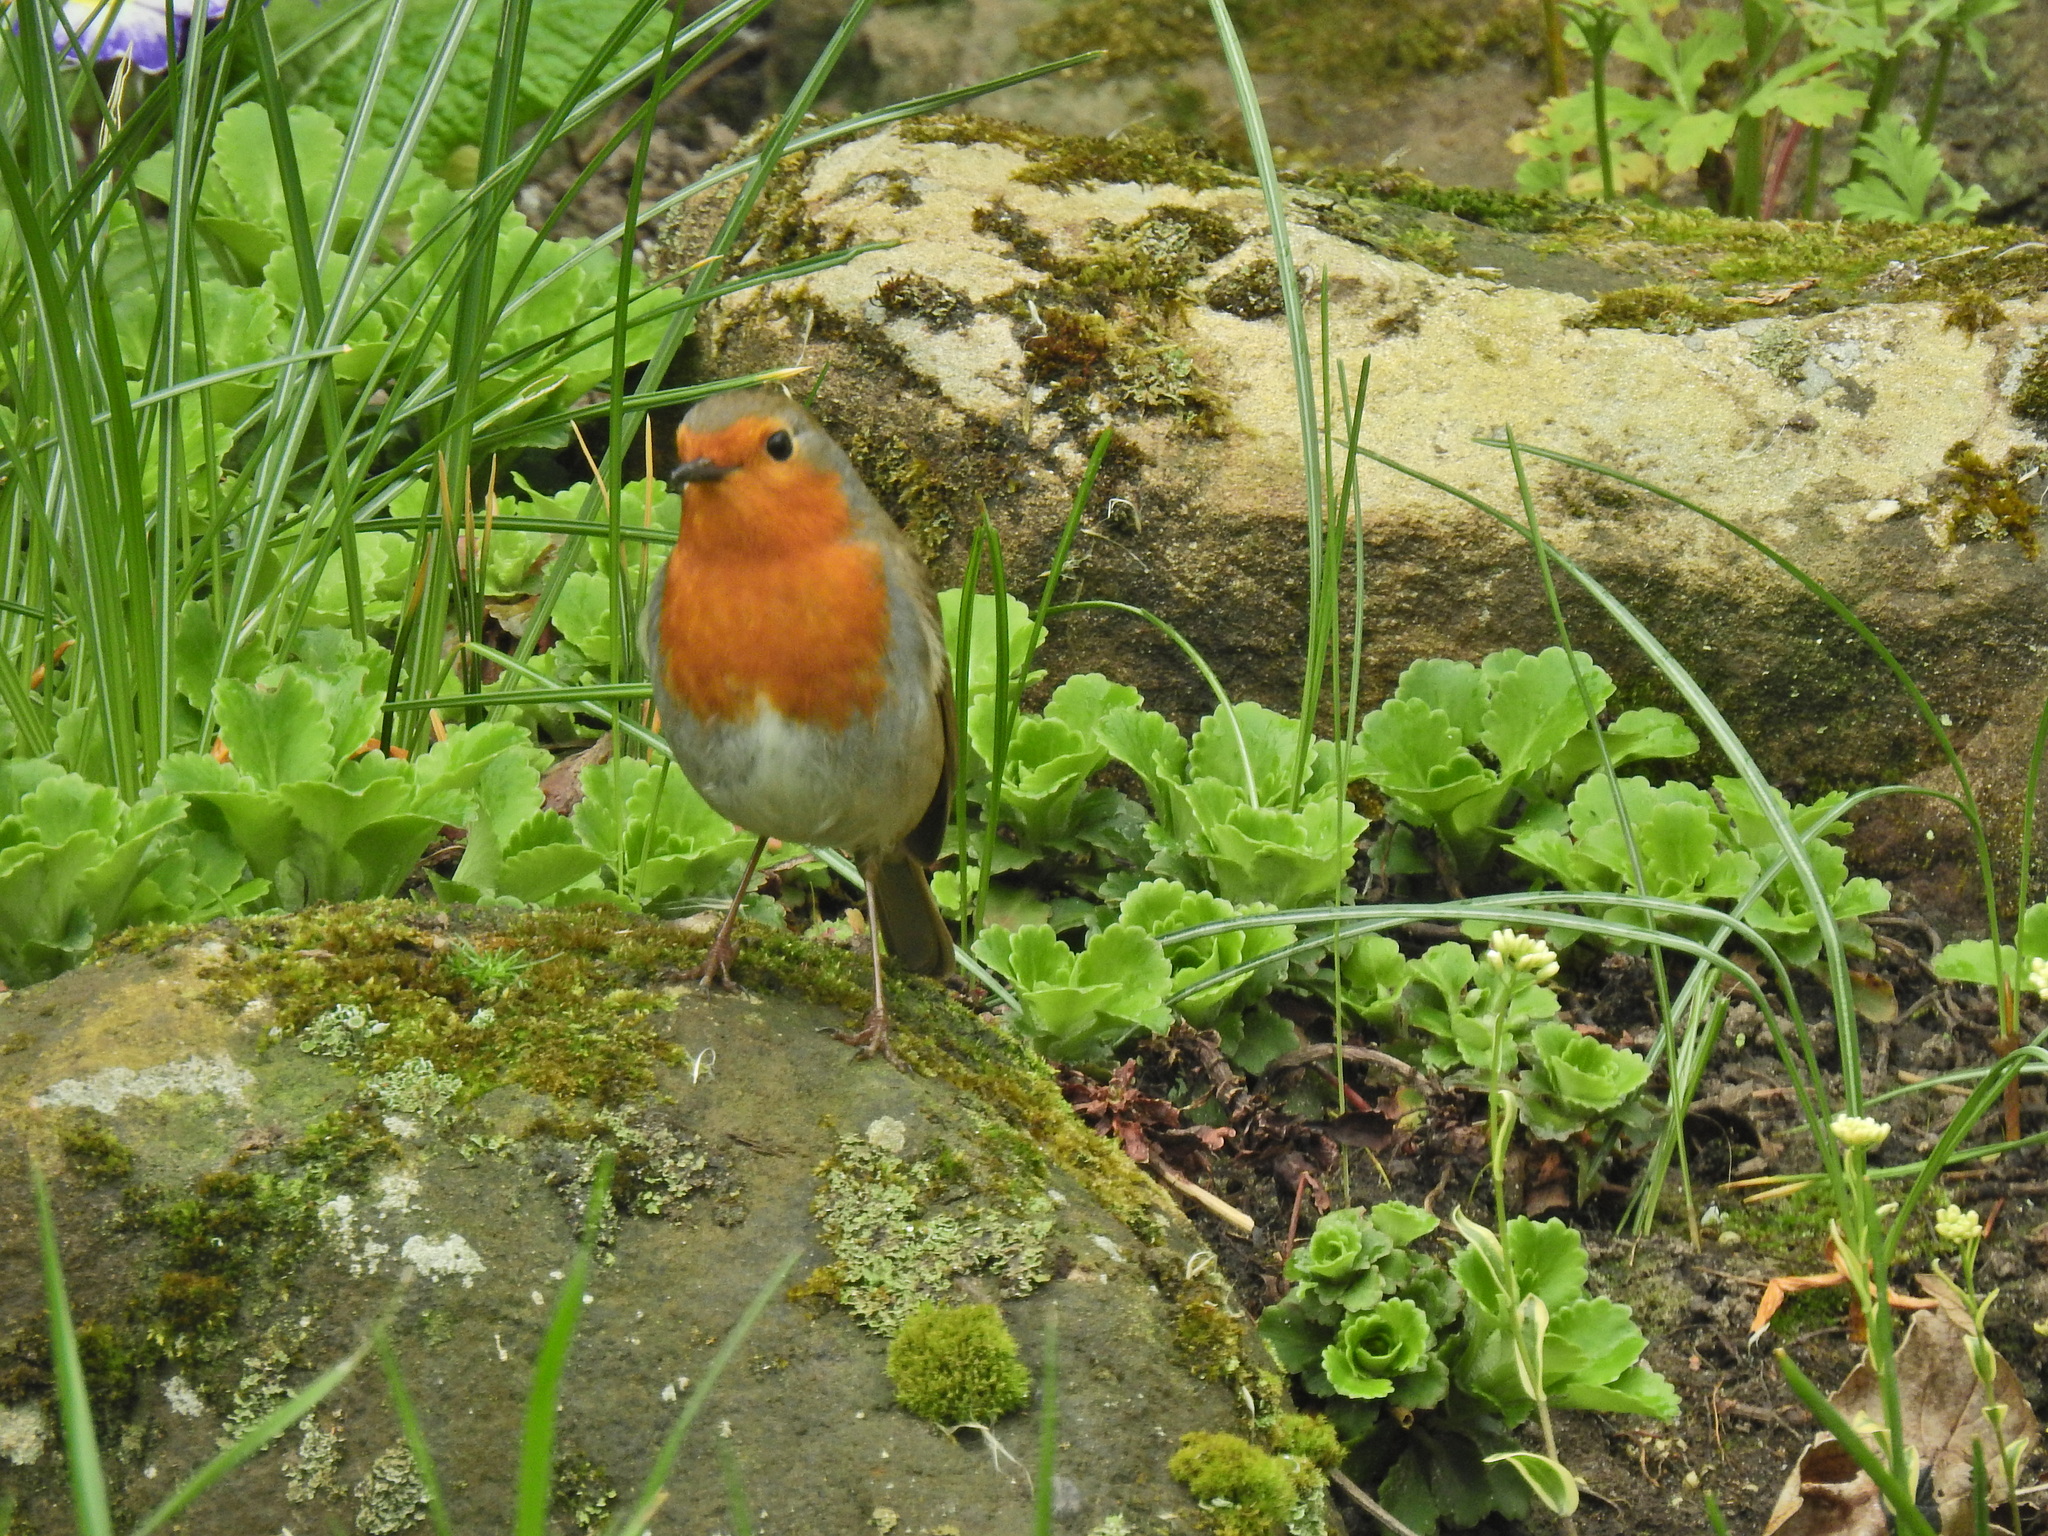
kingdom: Animalia
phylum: Chordata
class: Aves
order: Passeriformes
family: Muscicapidae
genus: Erithacus
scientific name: Erithacus rubecula
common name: European robin
